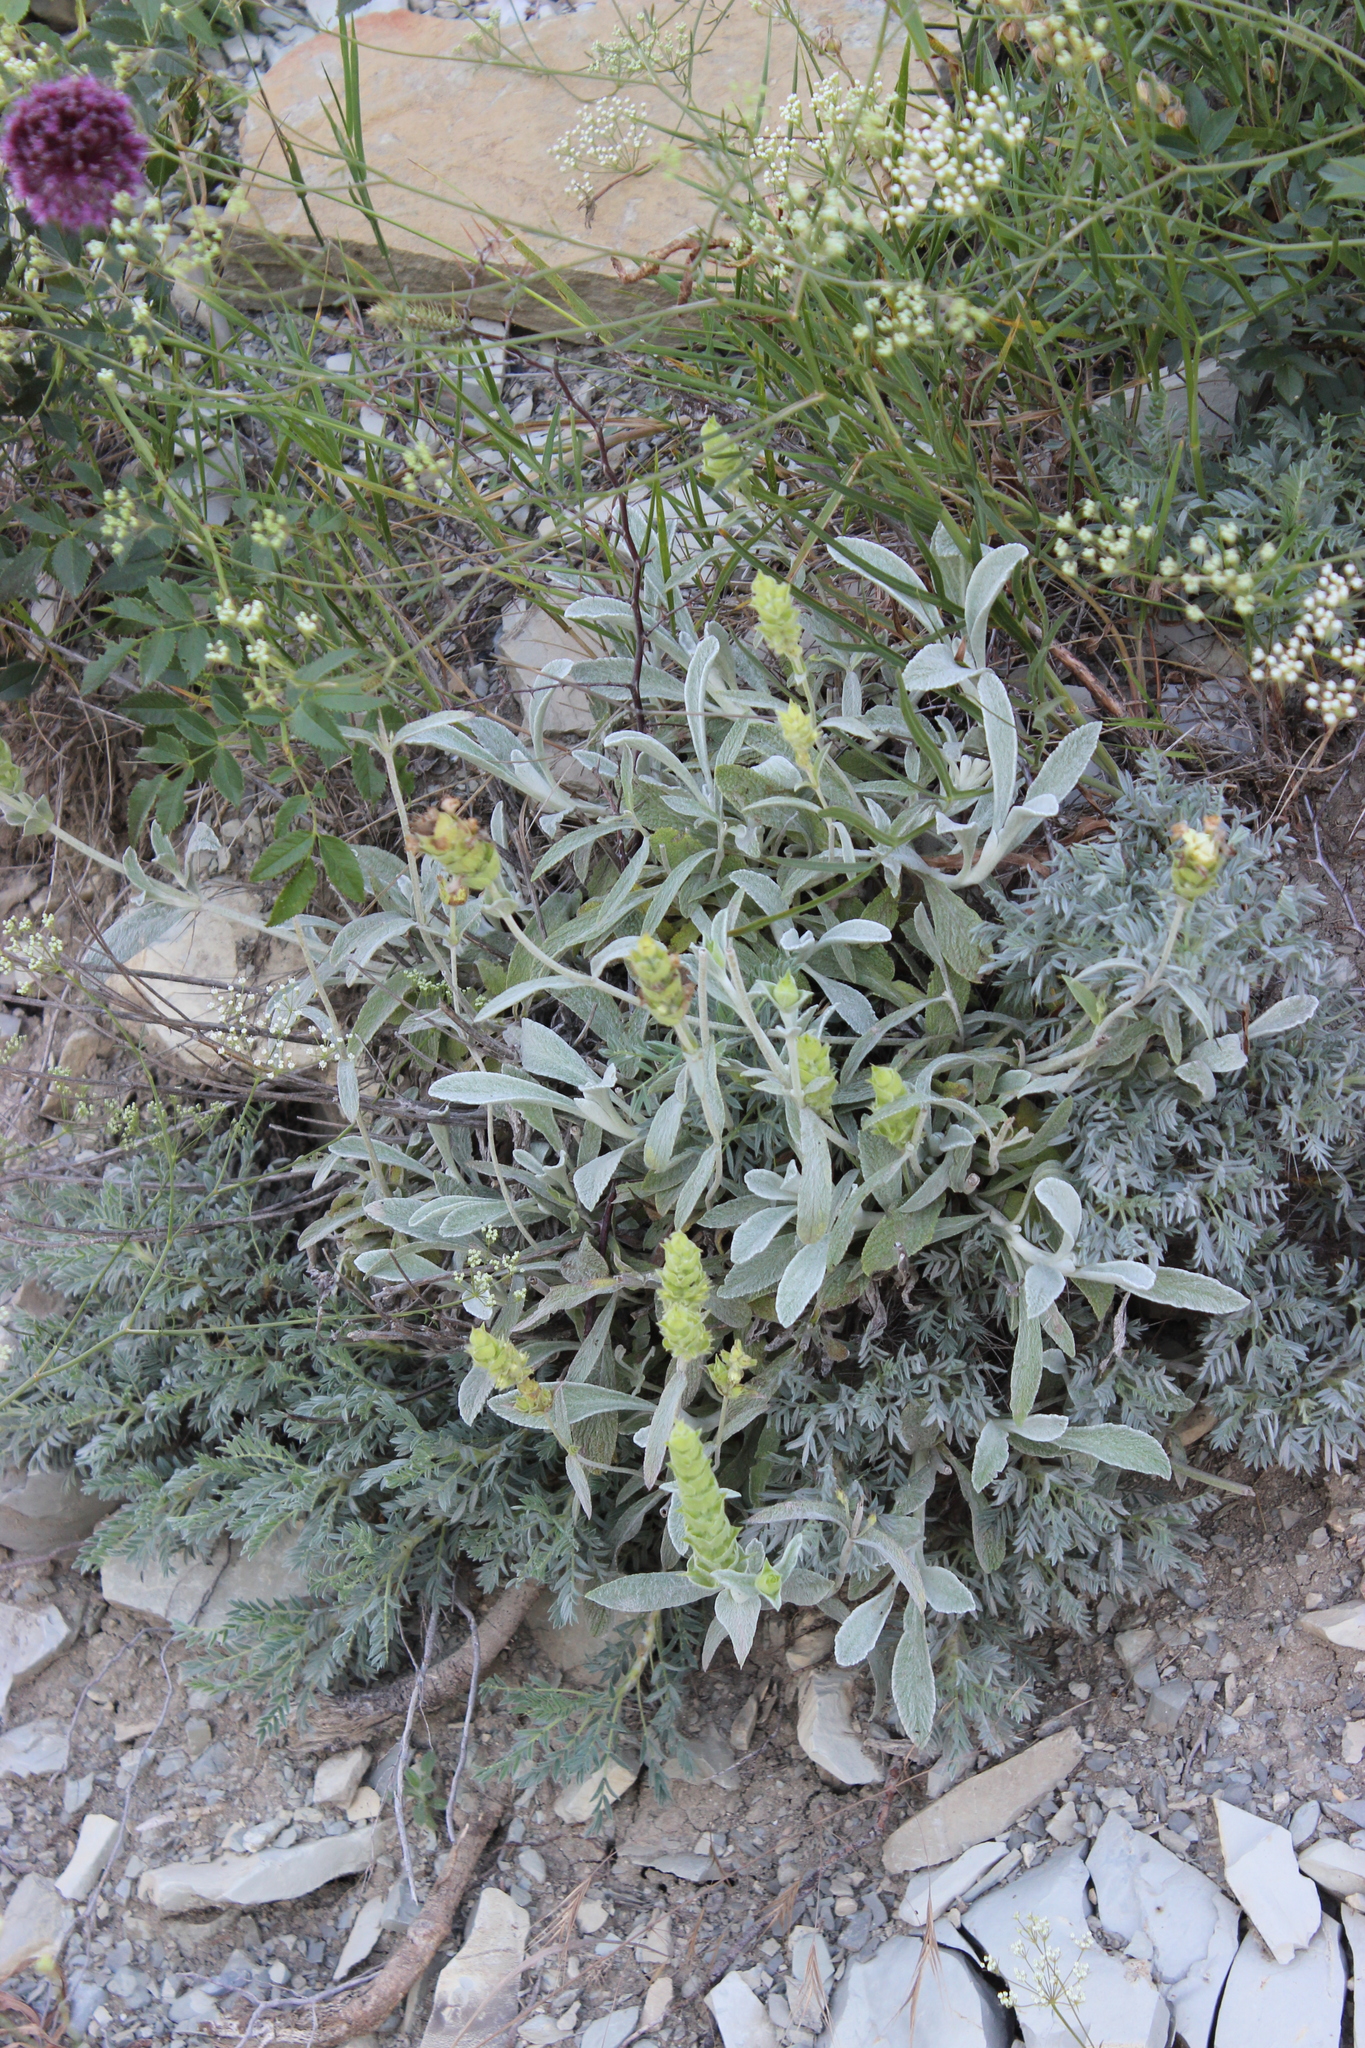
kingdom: Plantae
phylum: Tracheophyta
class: Magnoliopsida
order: Lamiales
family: Lamiaceae
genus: Sideritis
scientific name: Sideritis euxina
